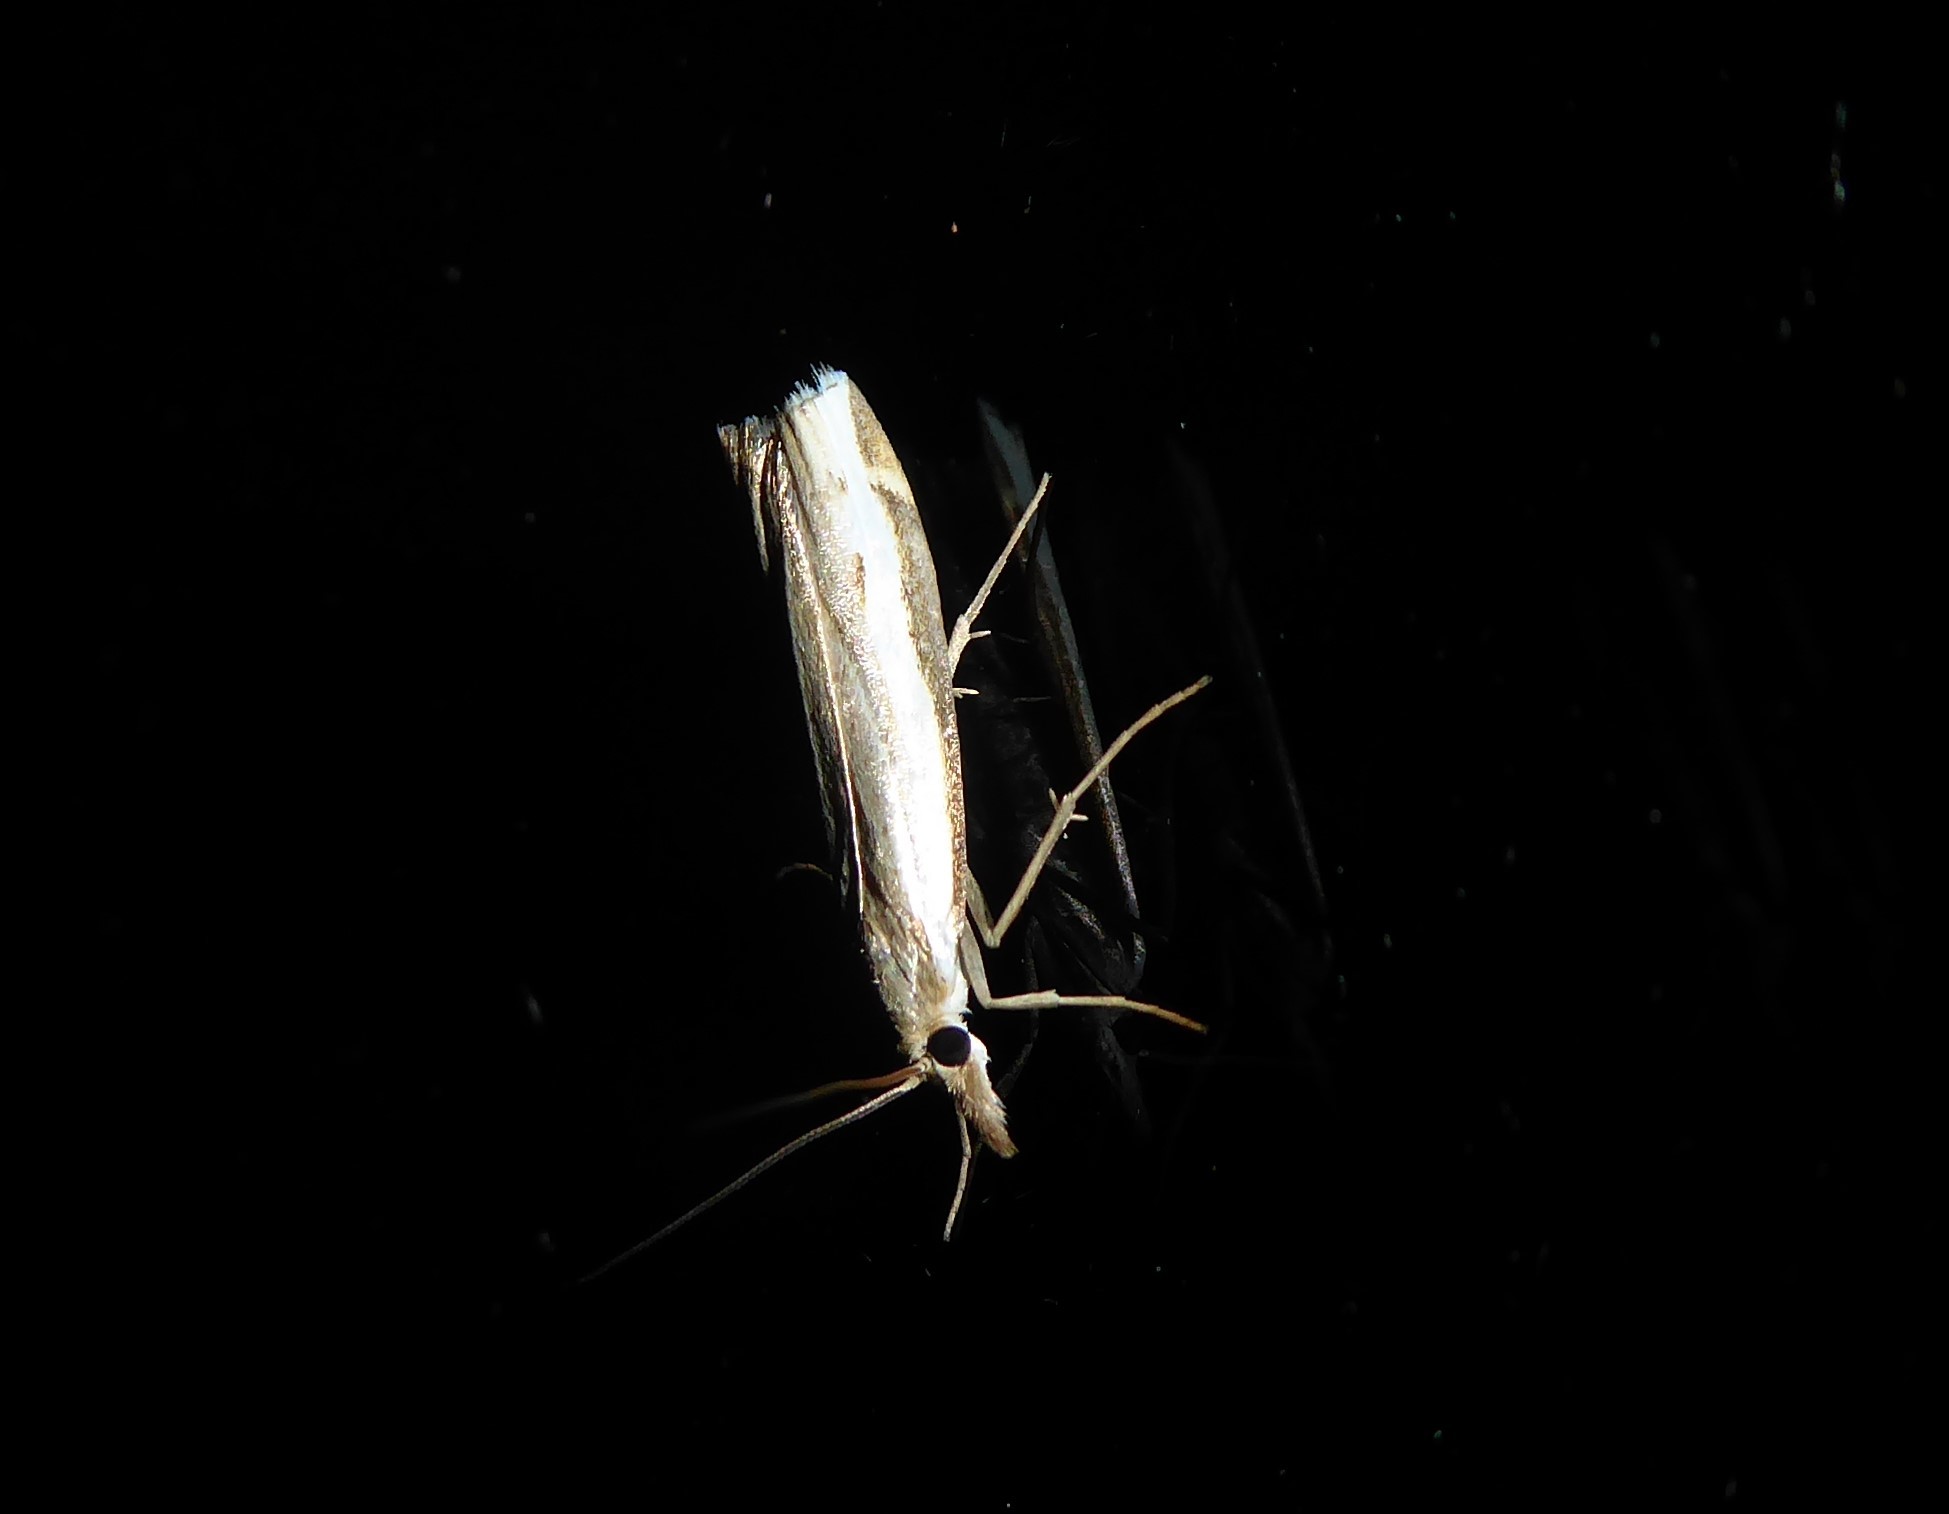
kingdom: Animalia
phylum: Arthropoda
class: Insecta
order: Lepidoptera
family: Crambidae
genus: Orocrambus
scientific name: Orocrambus flexuosellus
